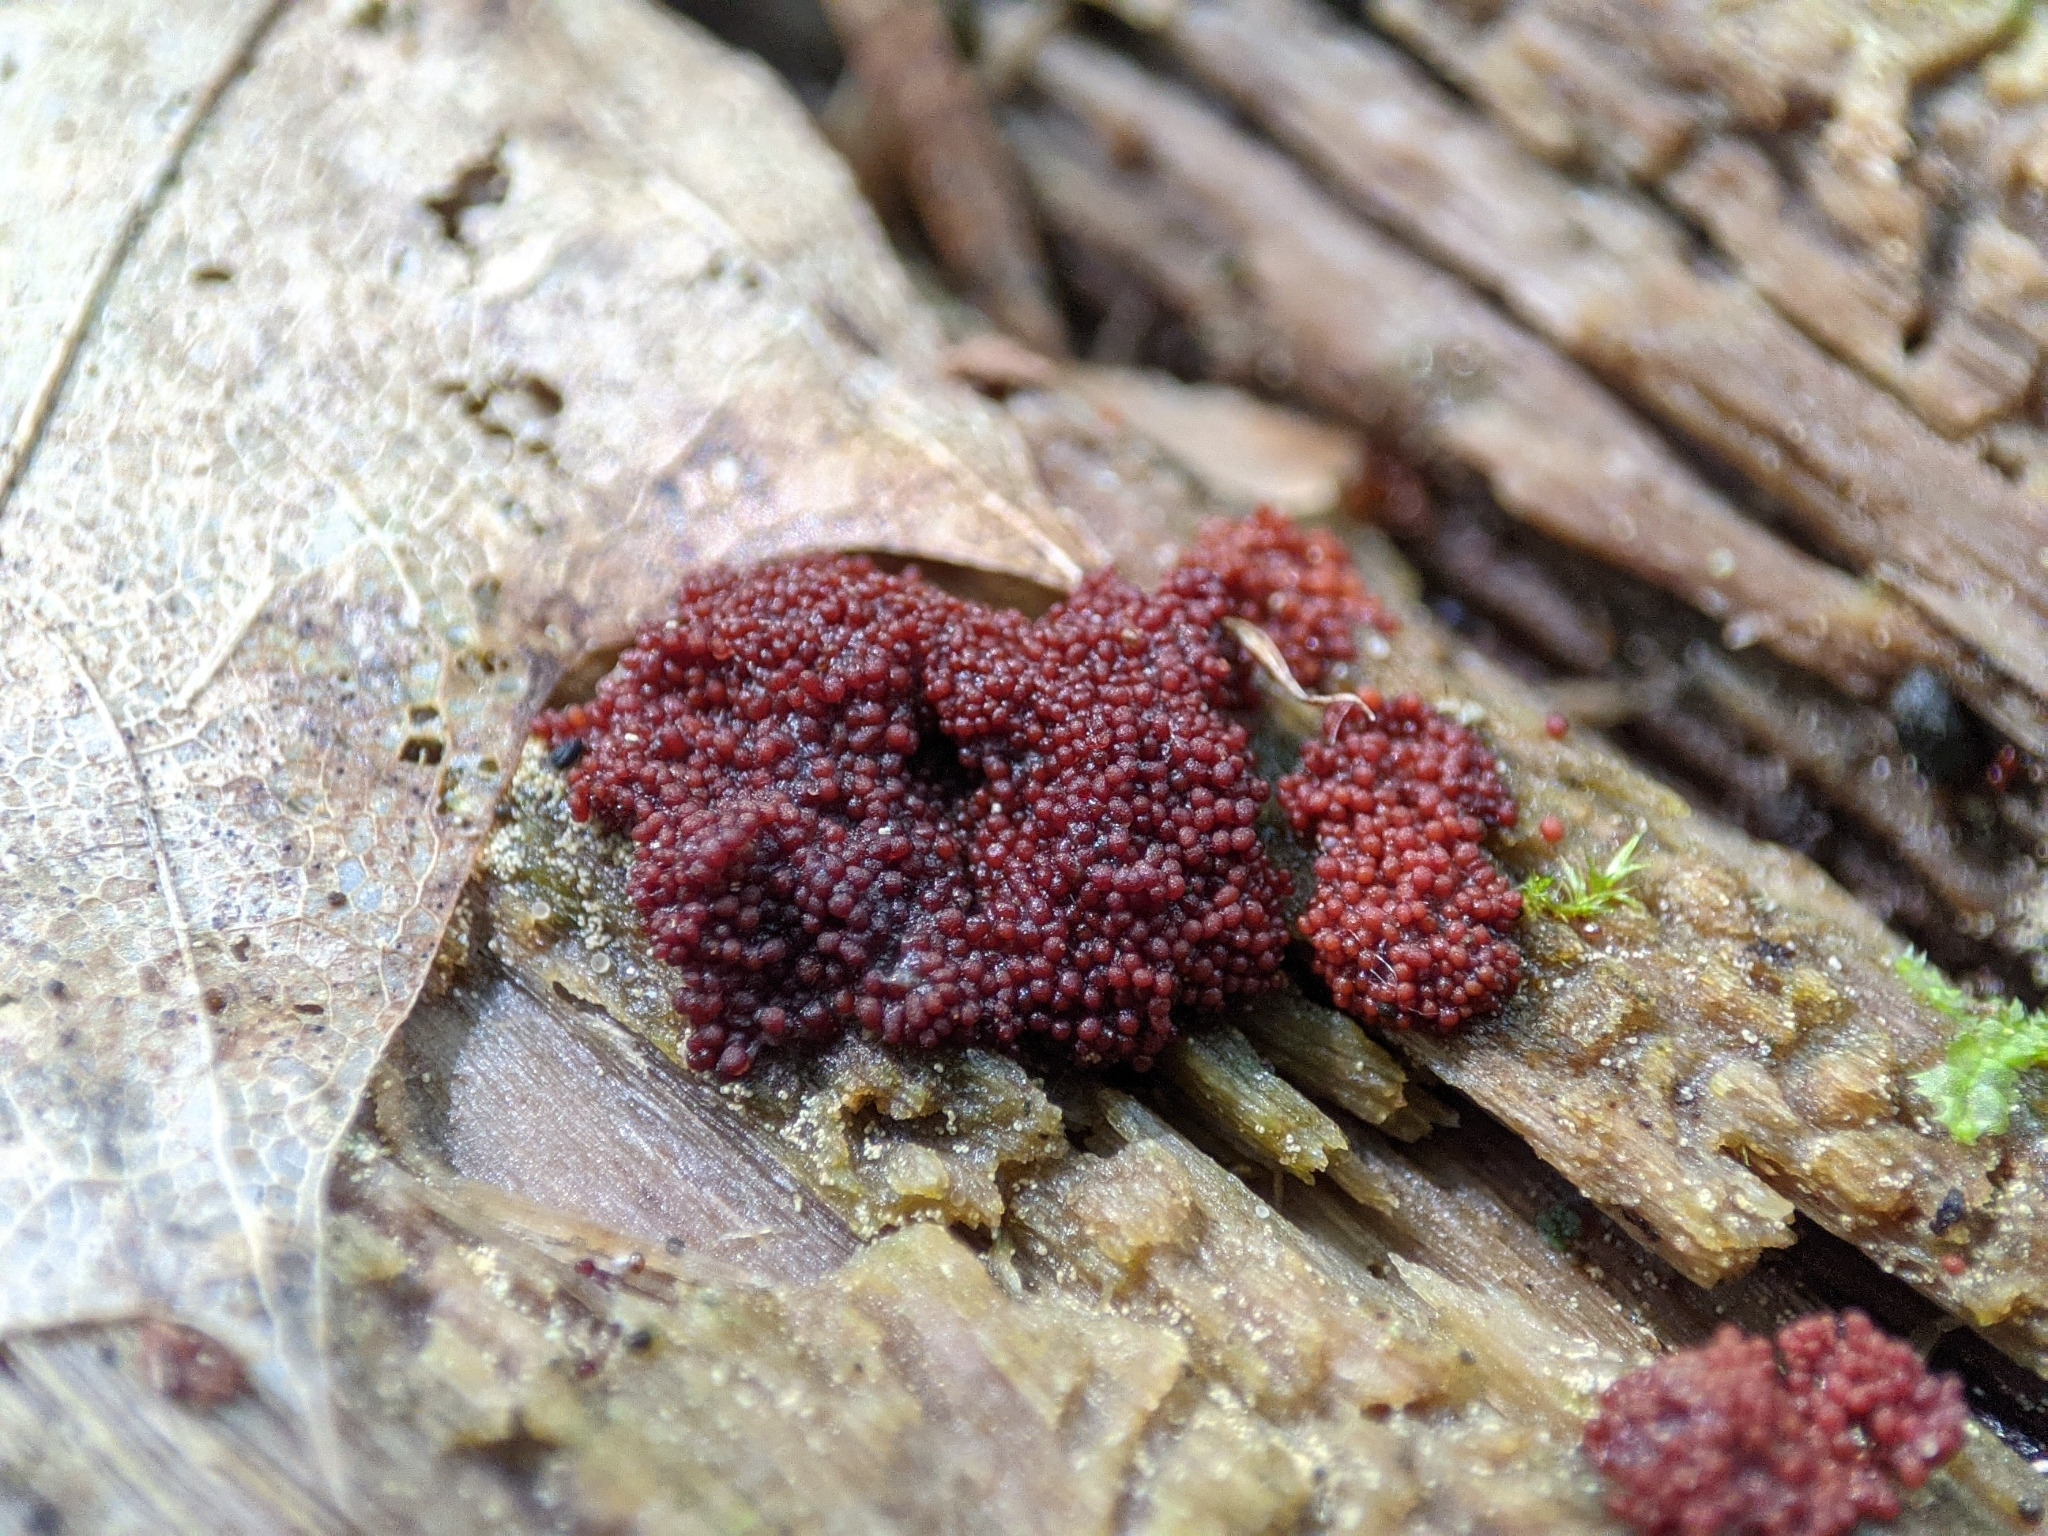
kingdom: Fungi
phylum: Basidiomycota
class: Agaricomycetes
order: Agaricales
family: Stephanosporaceae
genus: Myriococcum
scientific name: Myriococcum praecox
